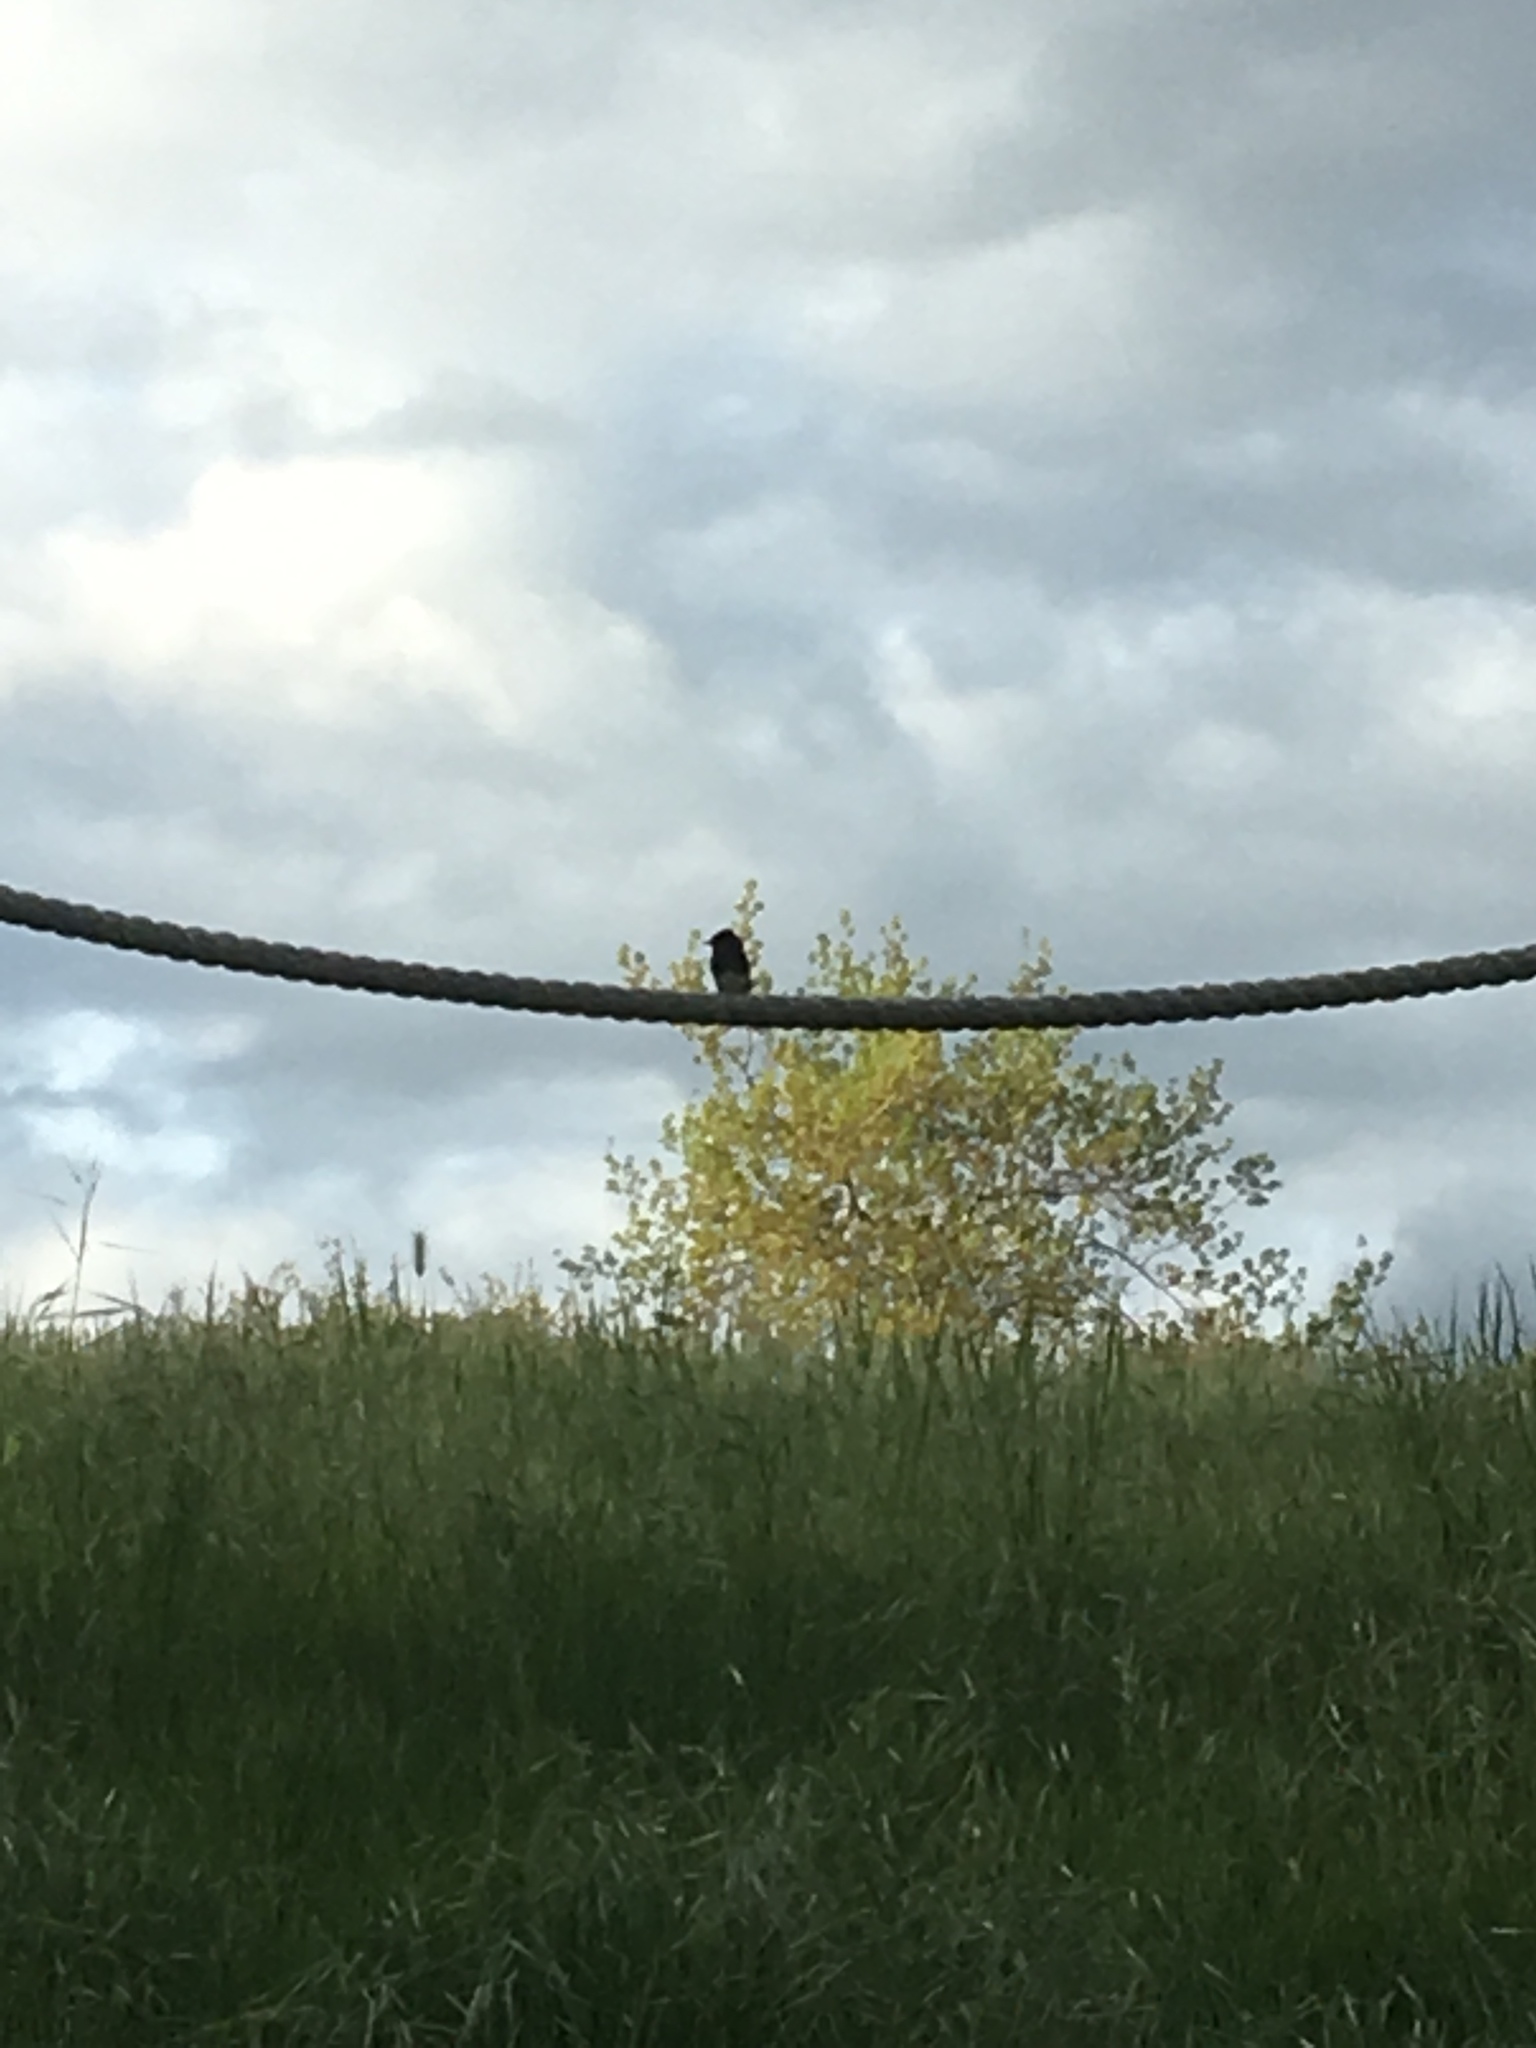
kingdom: Animalia
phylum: Chordata
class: Aves
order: Passeriformes
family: Tyrannidae
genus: Sayornis
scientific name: Sayornis nigricans
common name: Black phoebe
